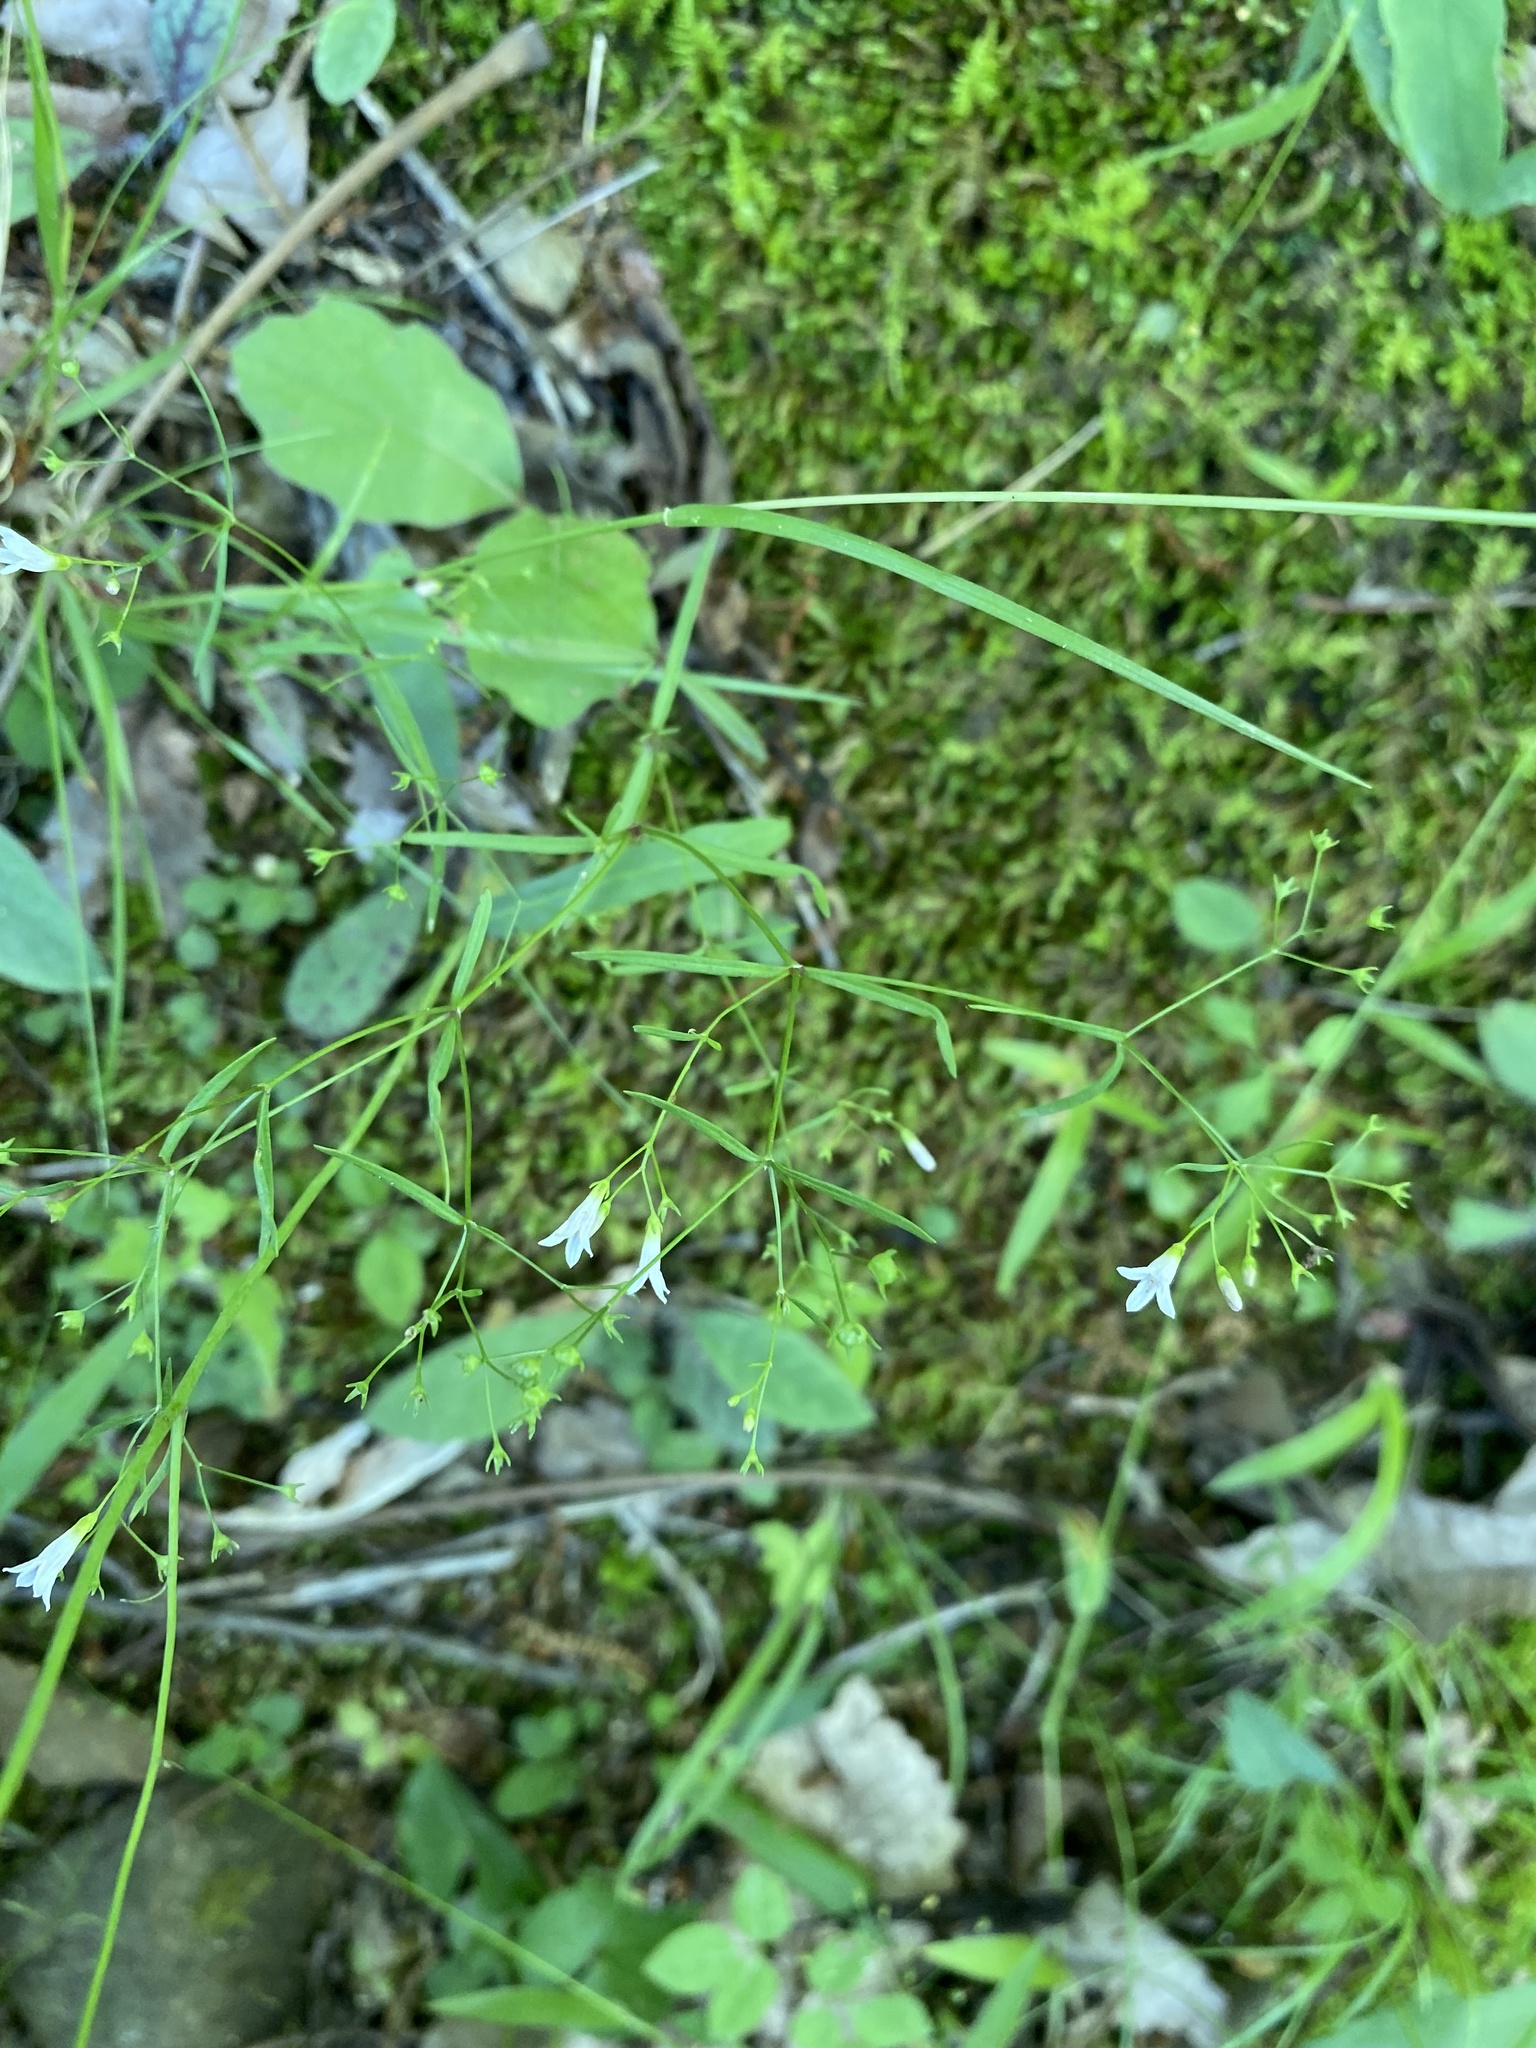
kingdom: Plantae
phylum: Tracheophyta
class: Magnoliopsida
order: Gentianales
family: Rubiaceae
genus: Houstonia
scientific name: Houstonia longifolia
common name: Long-leaved bluets
